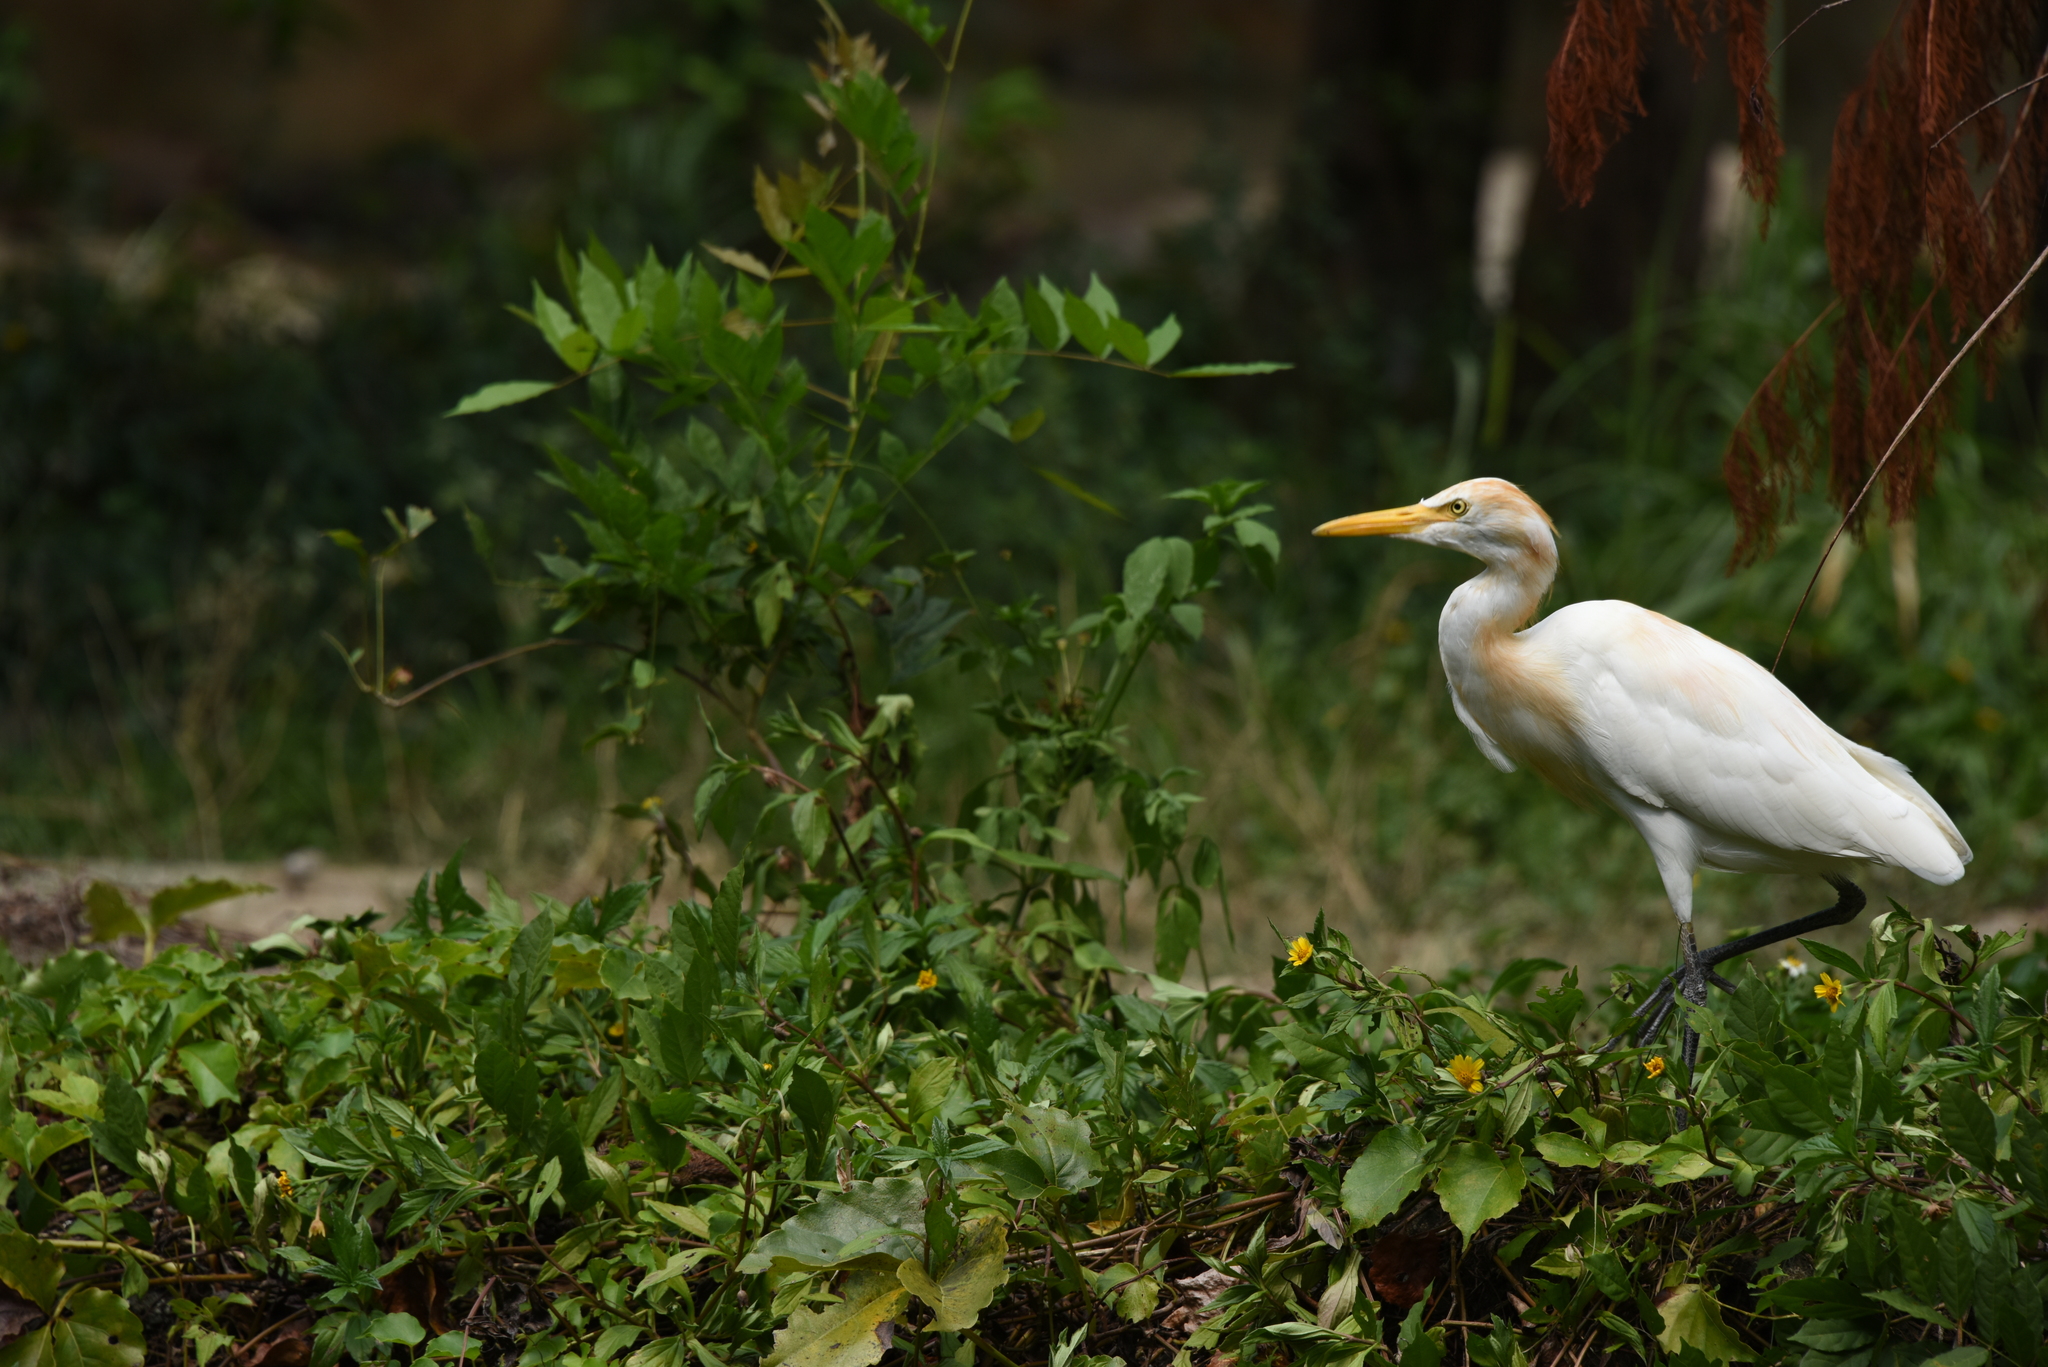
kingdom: Animalia
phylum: Chordata
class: Aves
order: Pelecaniformes
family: Ardeidae
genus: Bubulcus
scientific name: Bubulcus coromandus
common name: Eastern cattle egret
